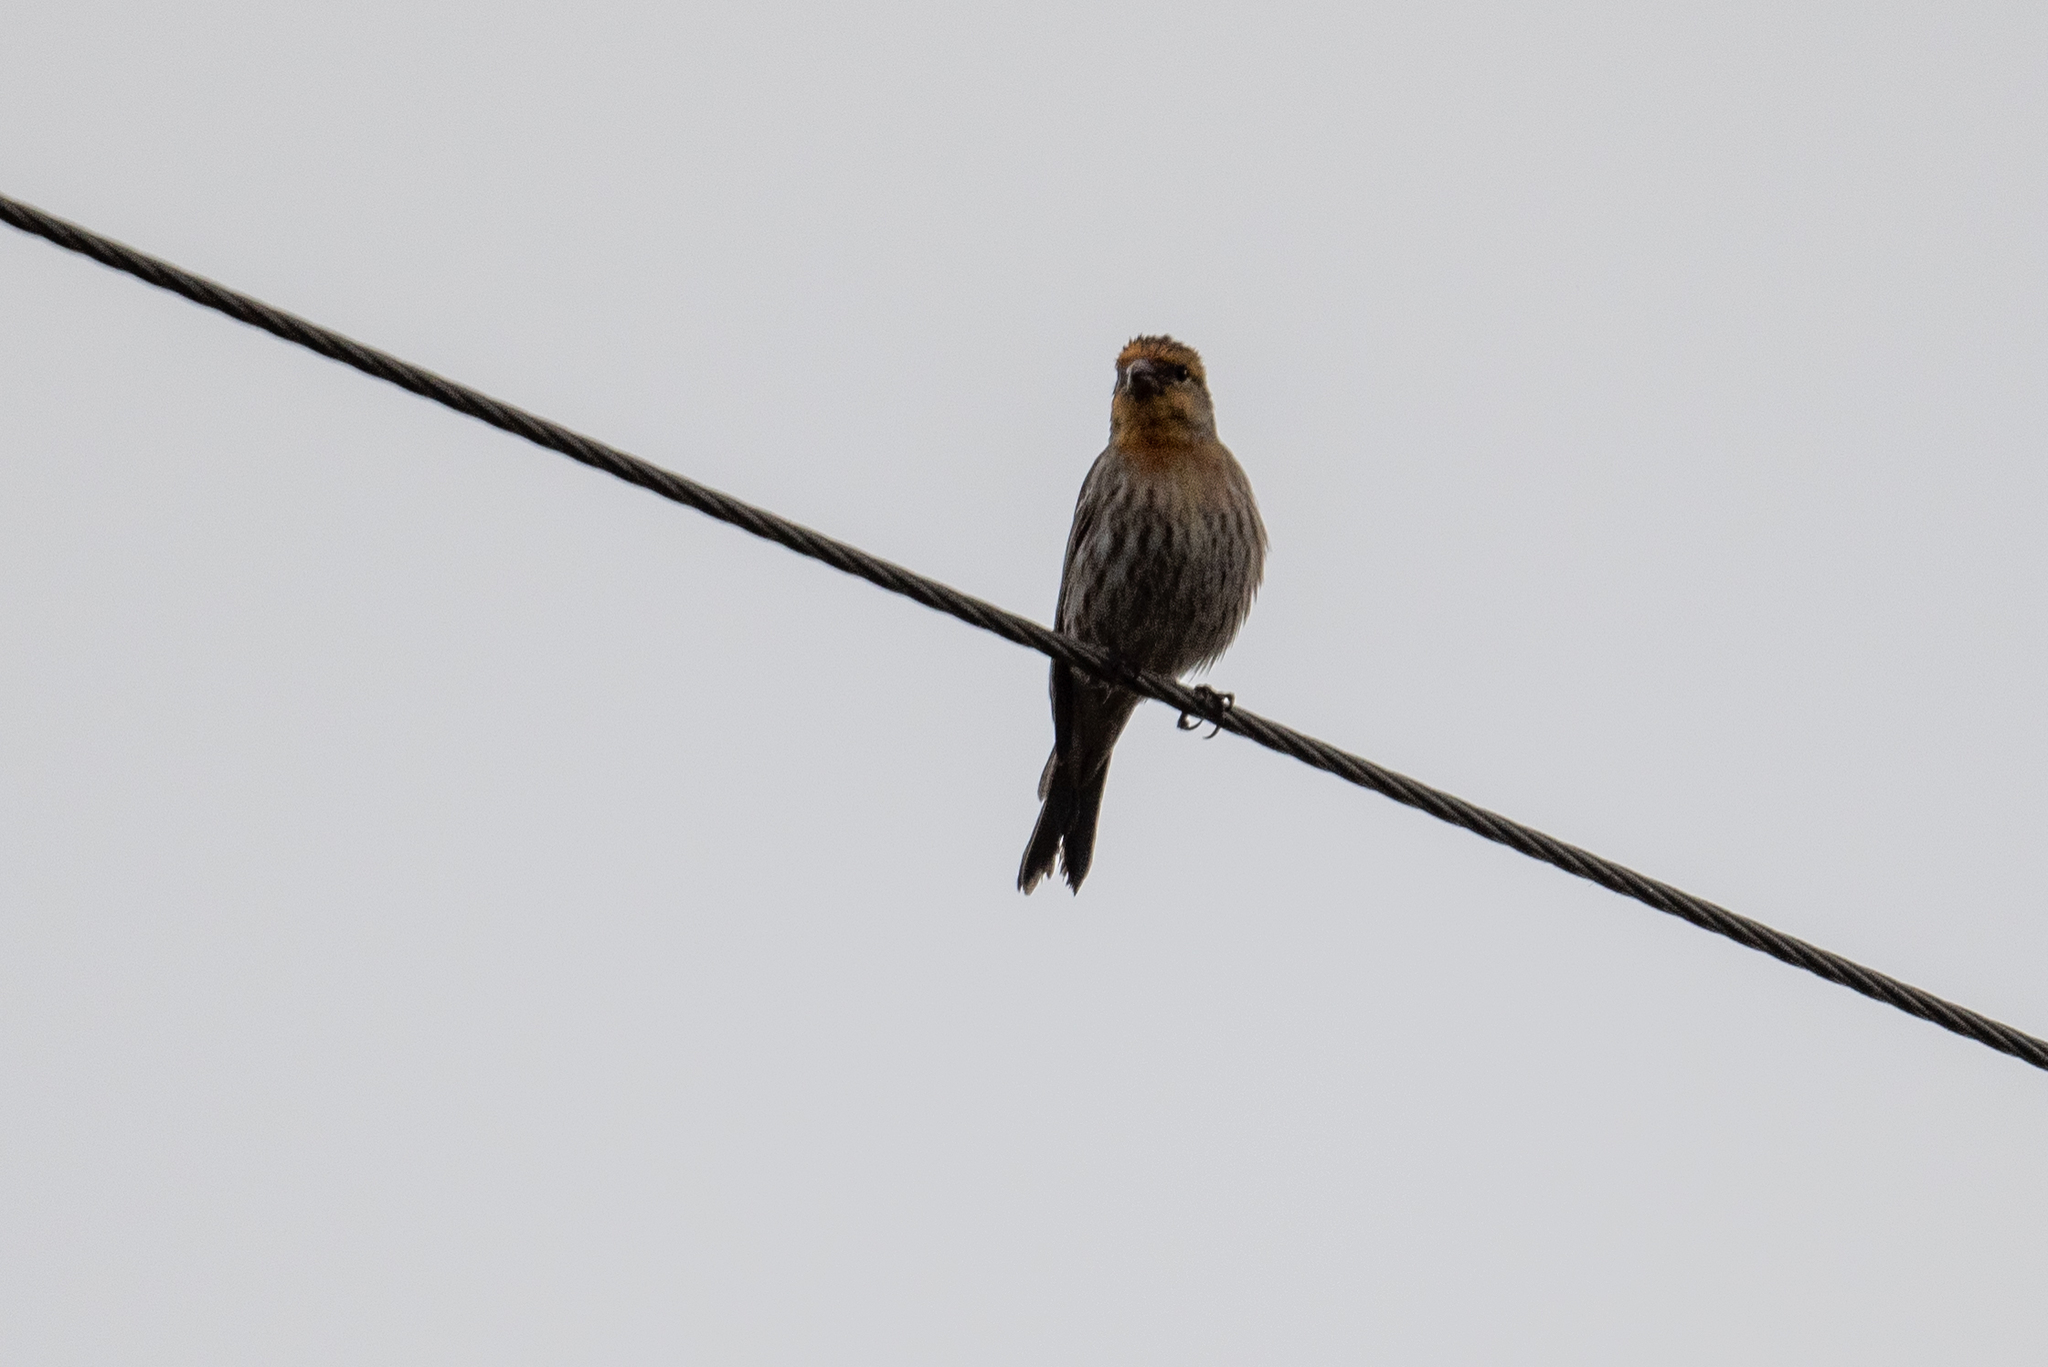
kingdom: Animalia
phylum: Chordata
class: Aves
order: Passeriformes
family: Fringillidae
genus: Haemorhous
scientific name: Haemorhous mexicanus
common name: House finch
